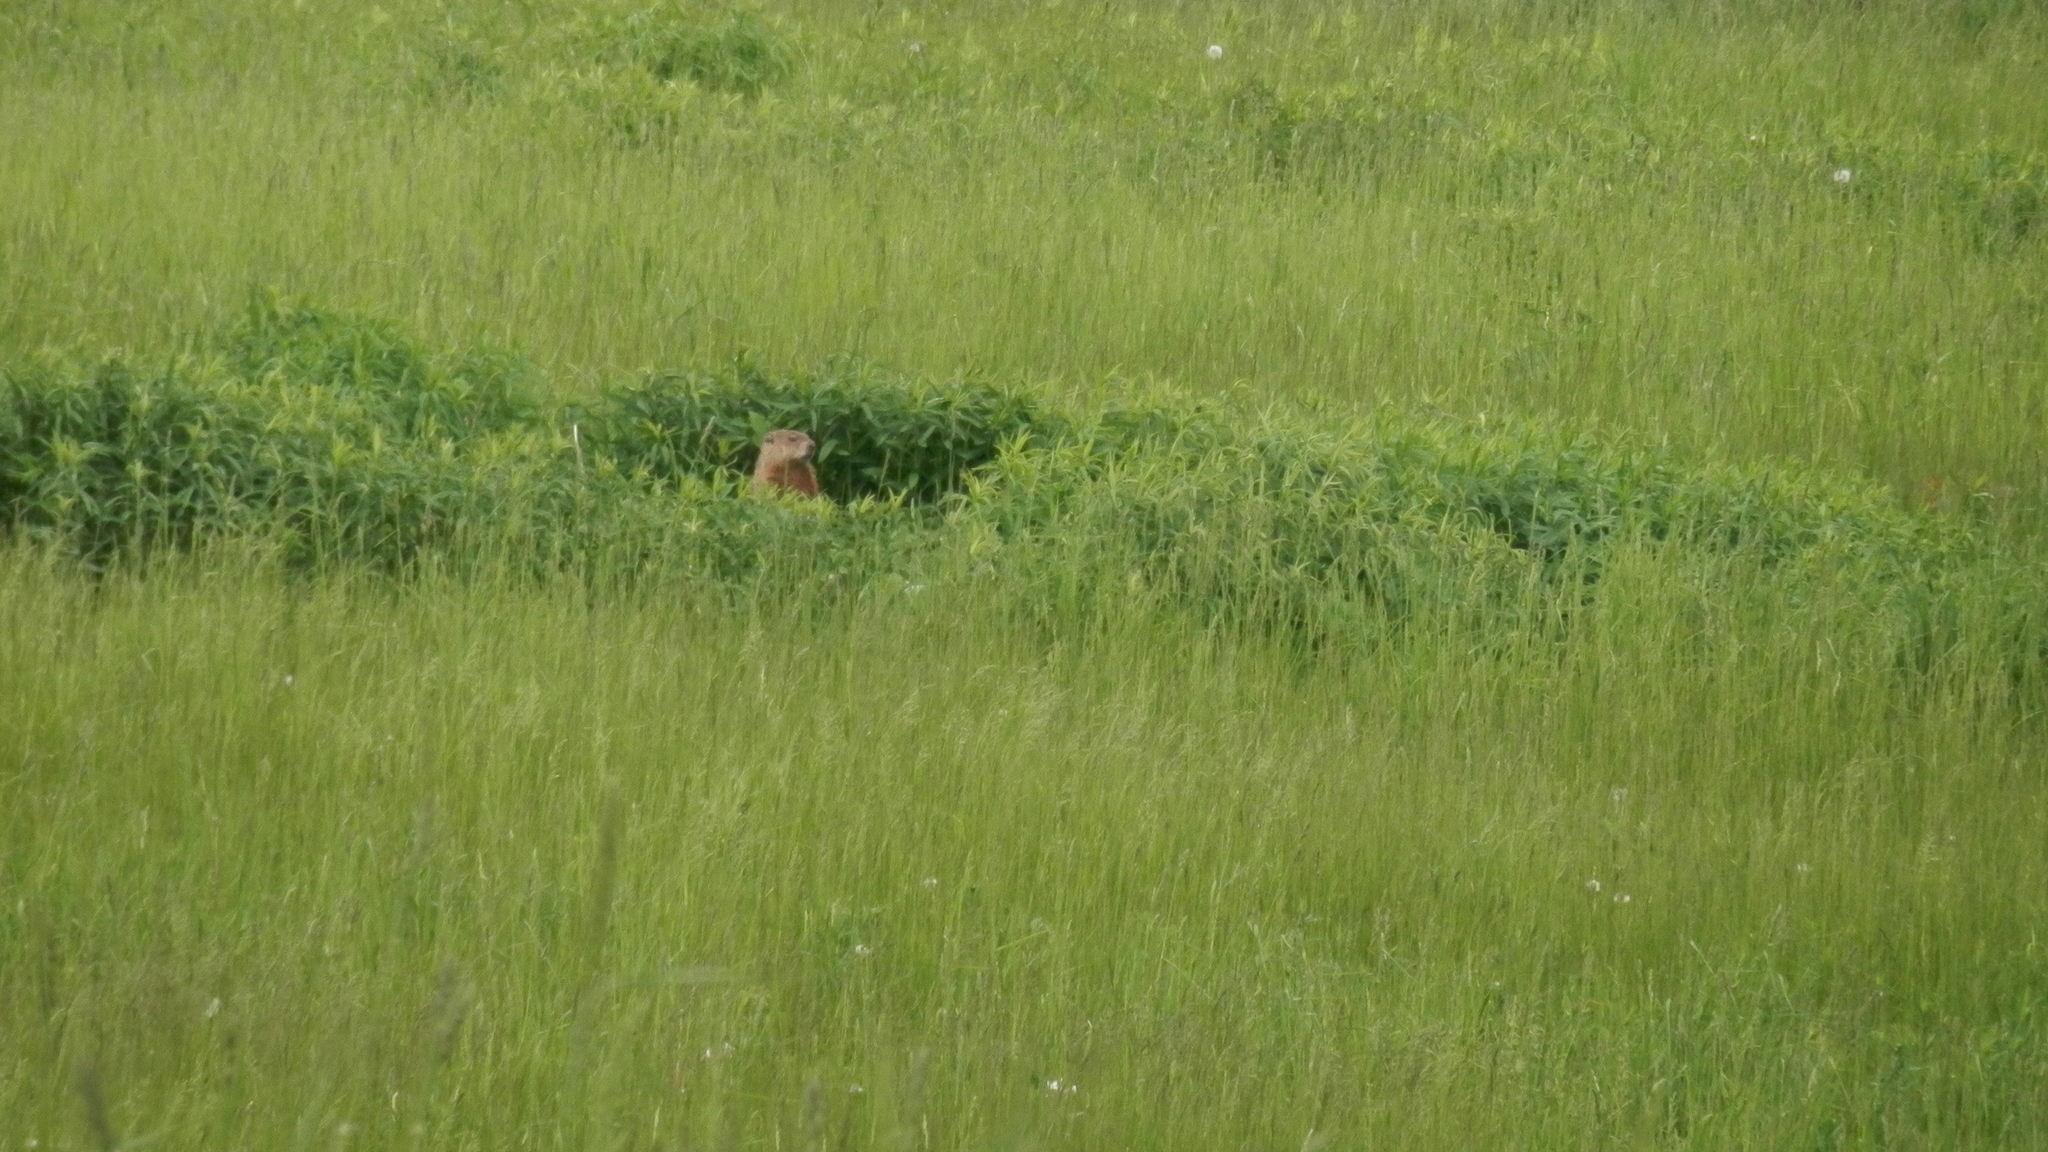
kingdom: Animalia
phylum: Chordata
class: Mammalia
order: Rodentia
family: Sciuridae
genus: Marmota
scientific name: Marmota monax
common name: Groundhog
